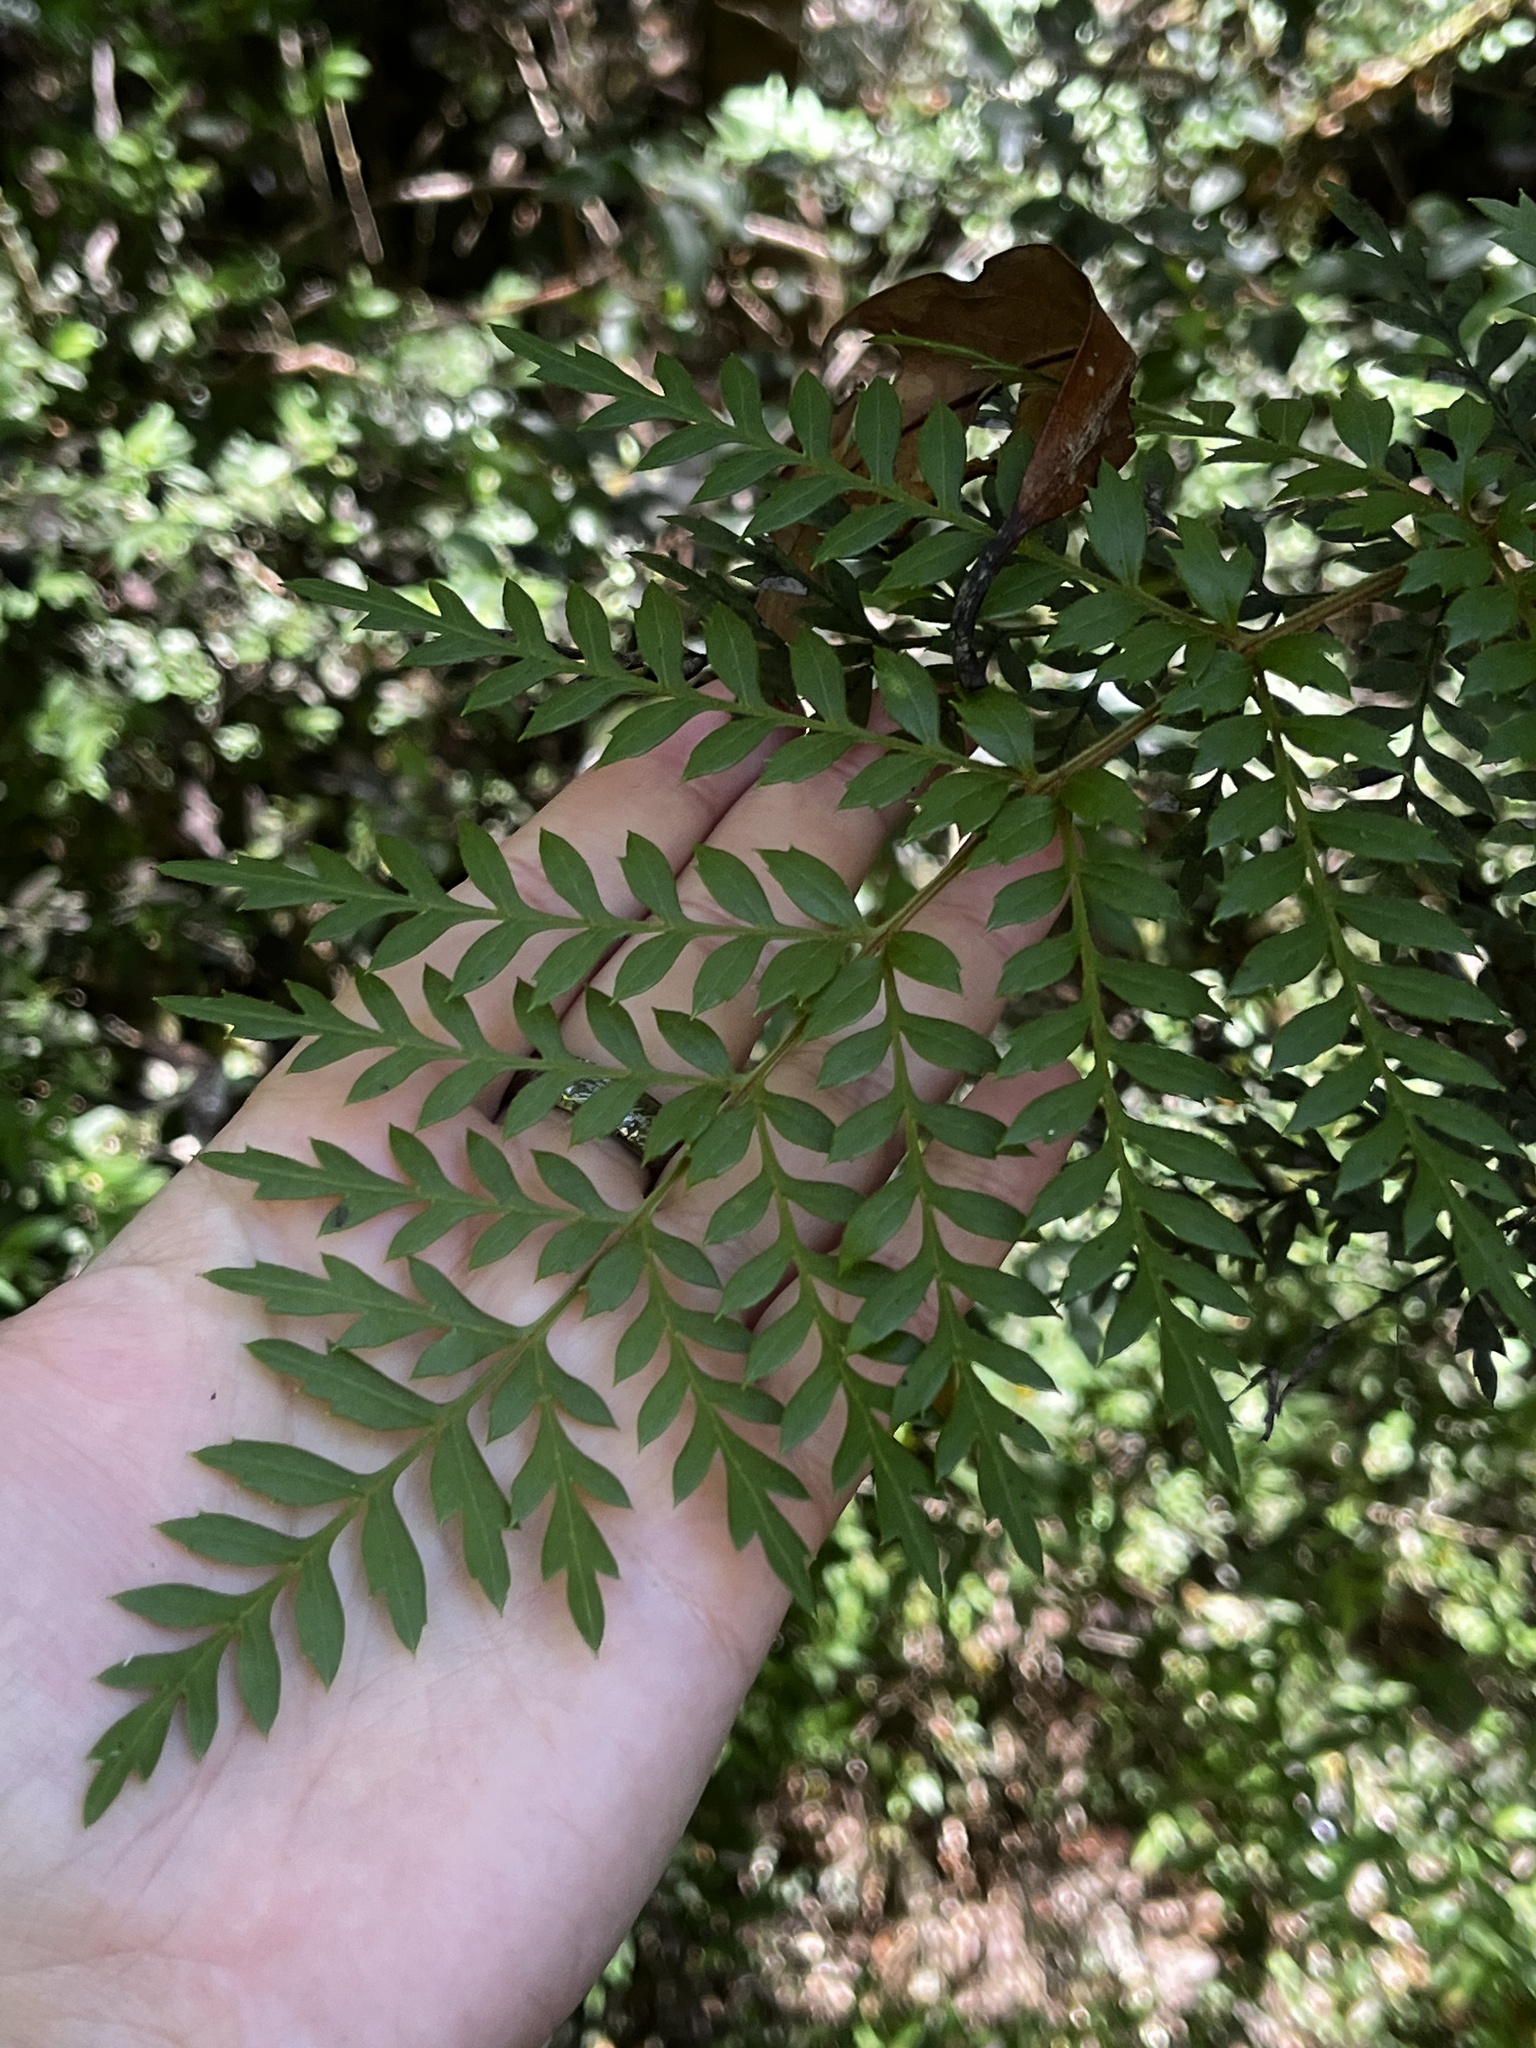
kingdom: Plantae
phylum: Tracheophyta
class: Magnoliopsida
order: Proteales
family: Proteaceae
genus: Lomatia
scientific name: Lomatia ferruginea
